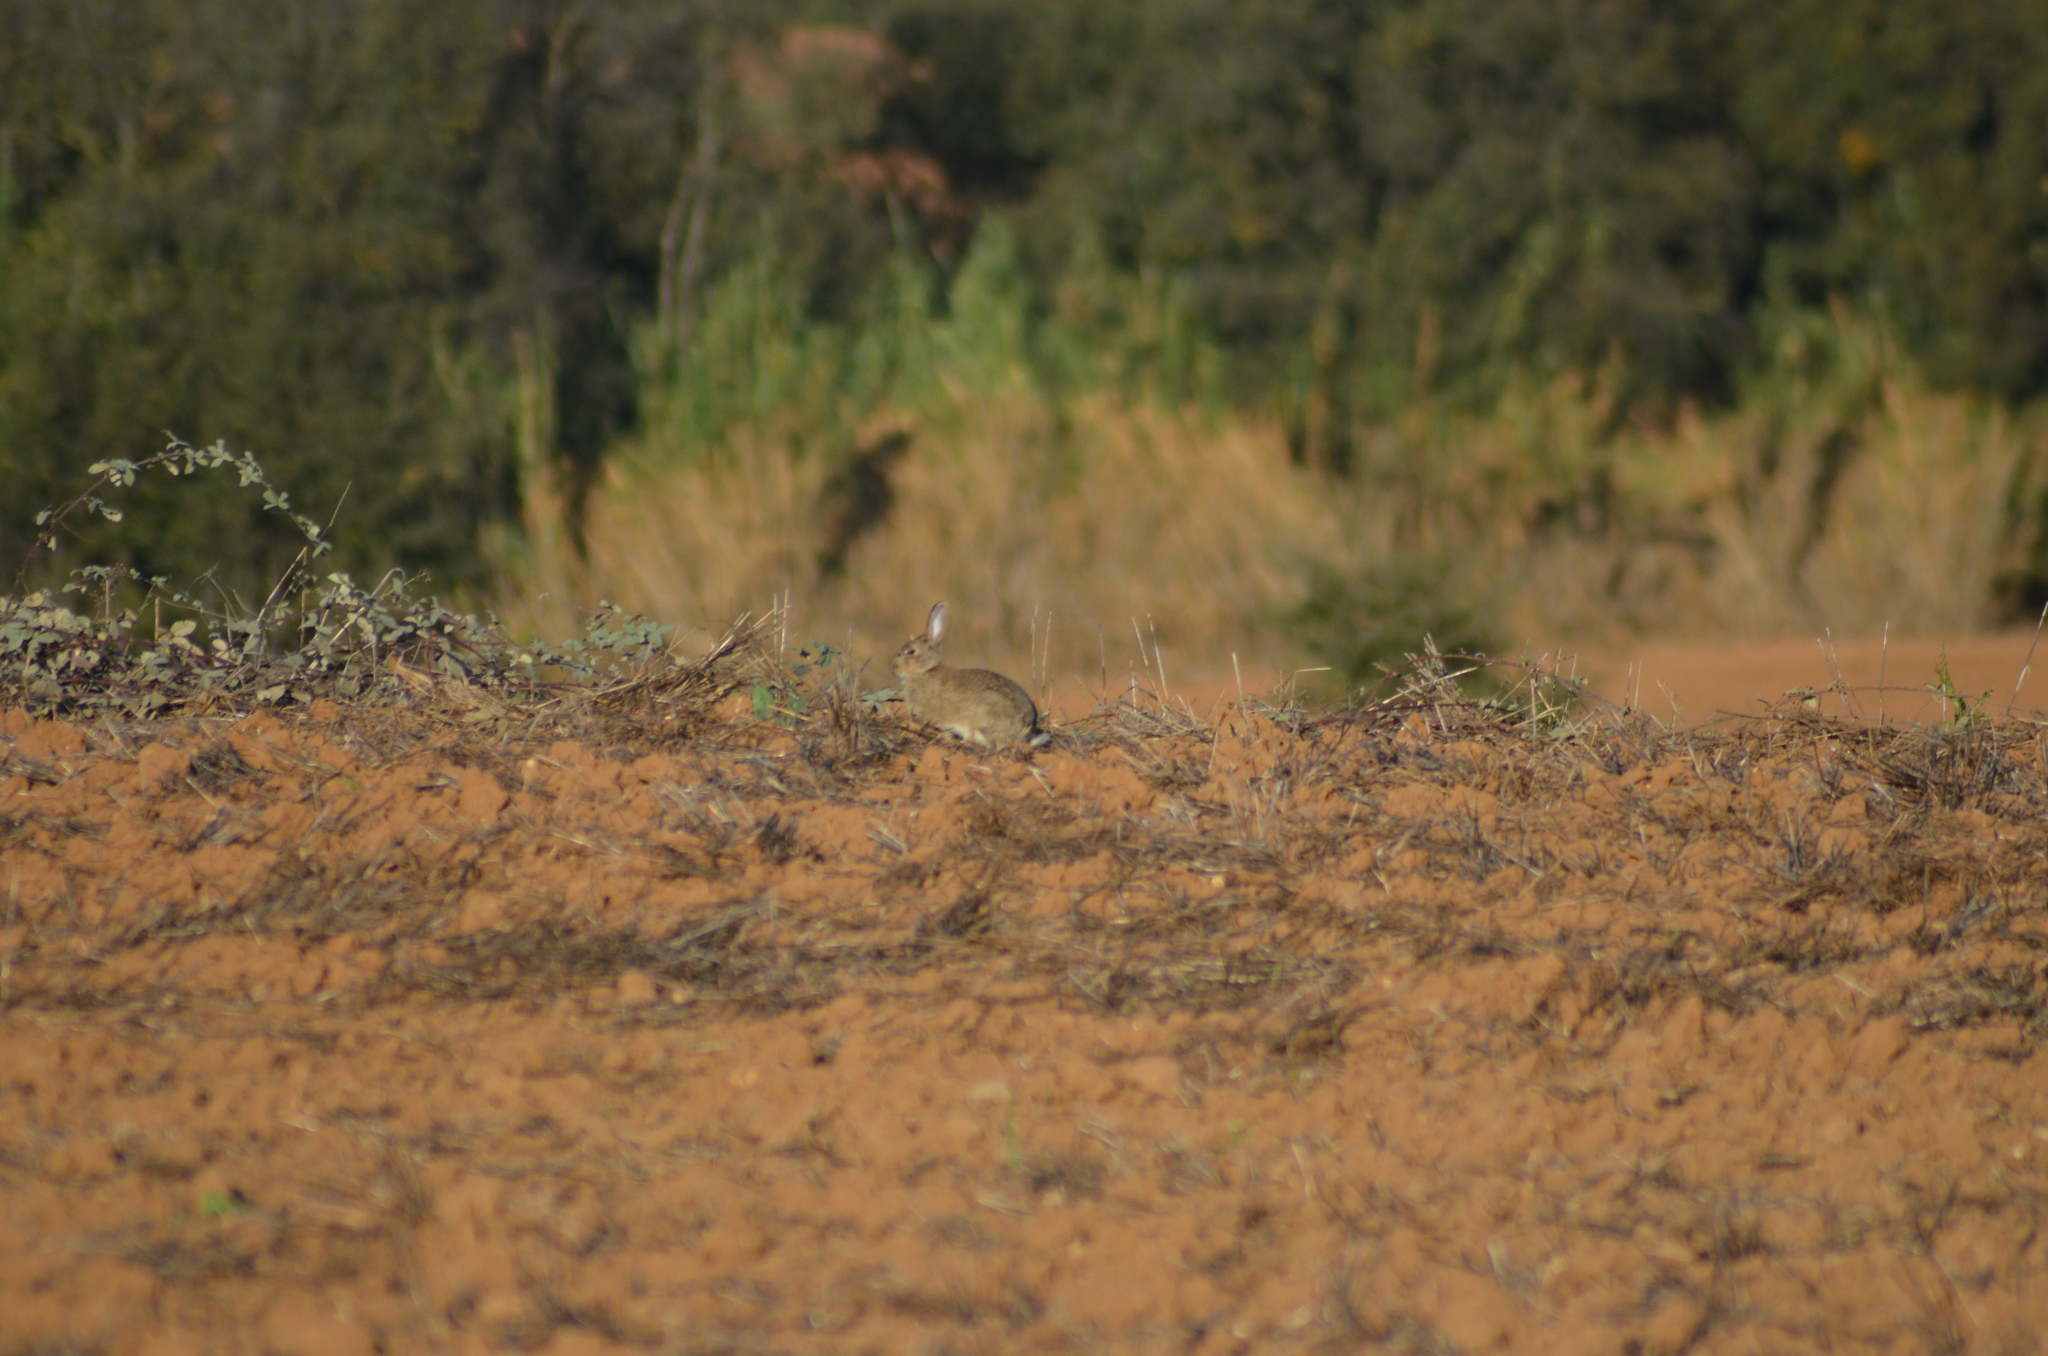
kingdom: Animalia
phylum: Chordata
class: Mammalia
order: Lagomorpha
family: Leporidae
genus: Oryctolagus
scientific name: Oryctolagus cuniculus
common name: European rabbit
